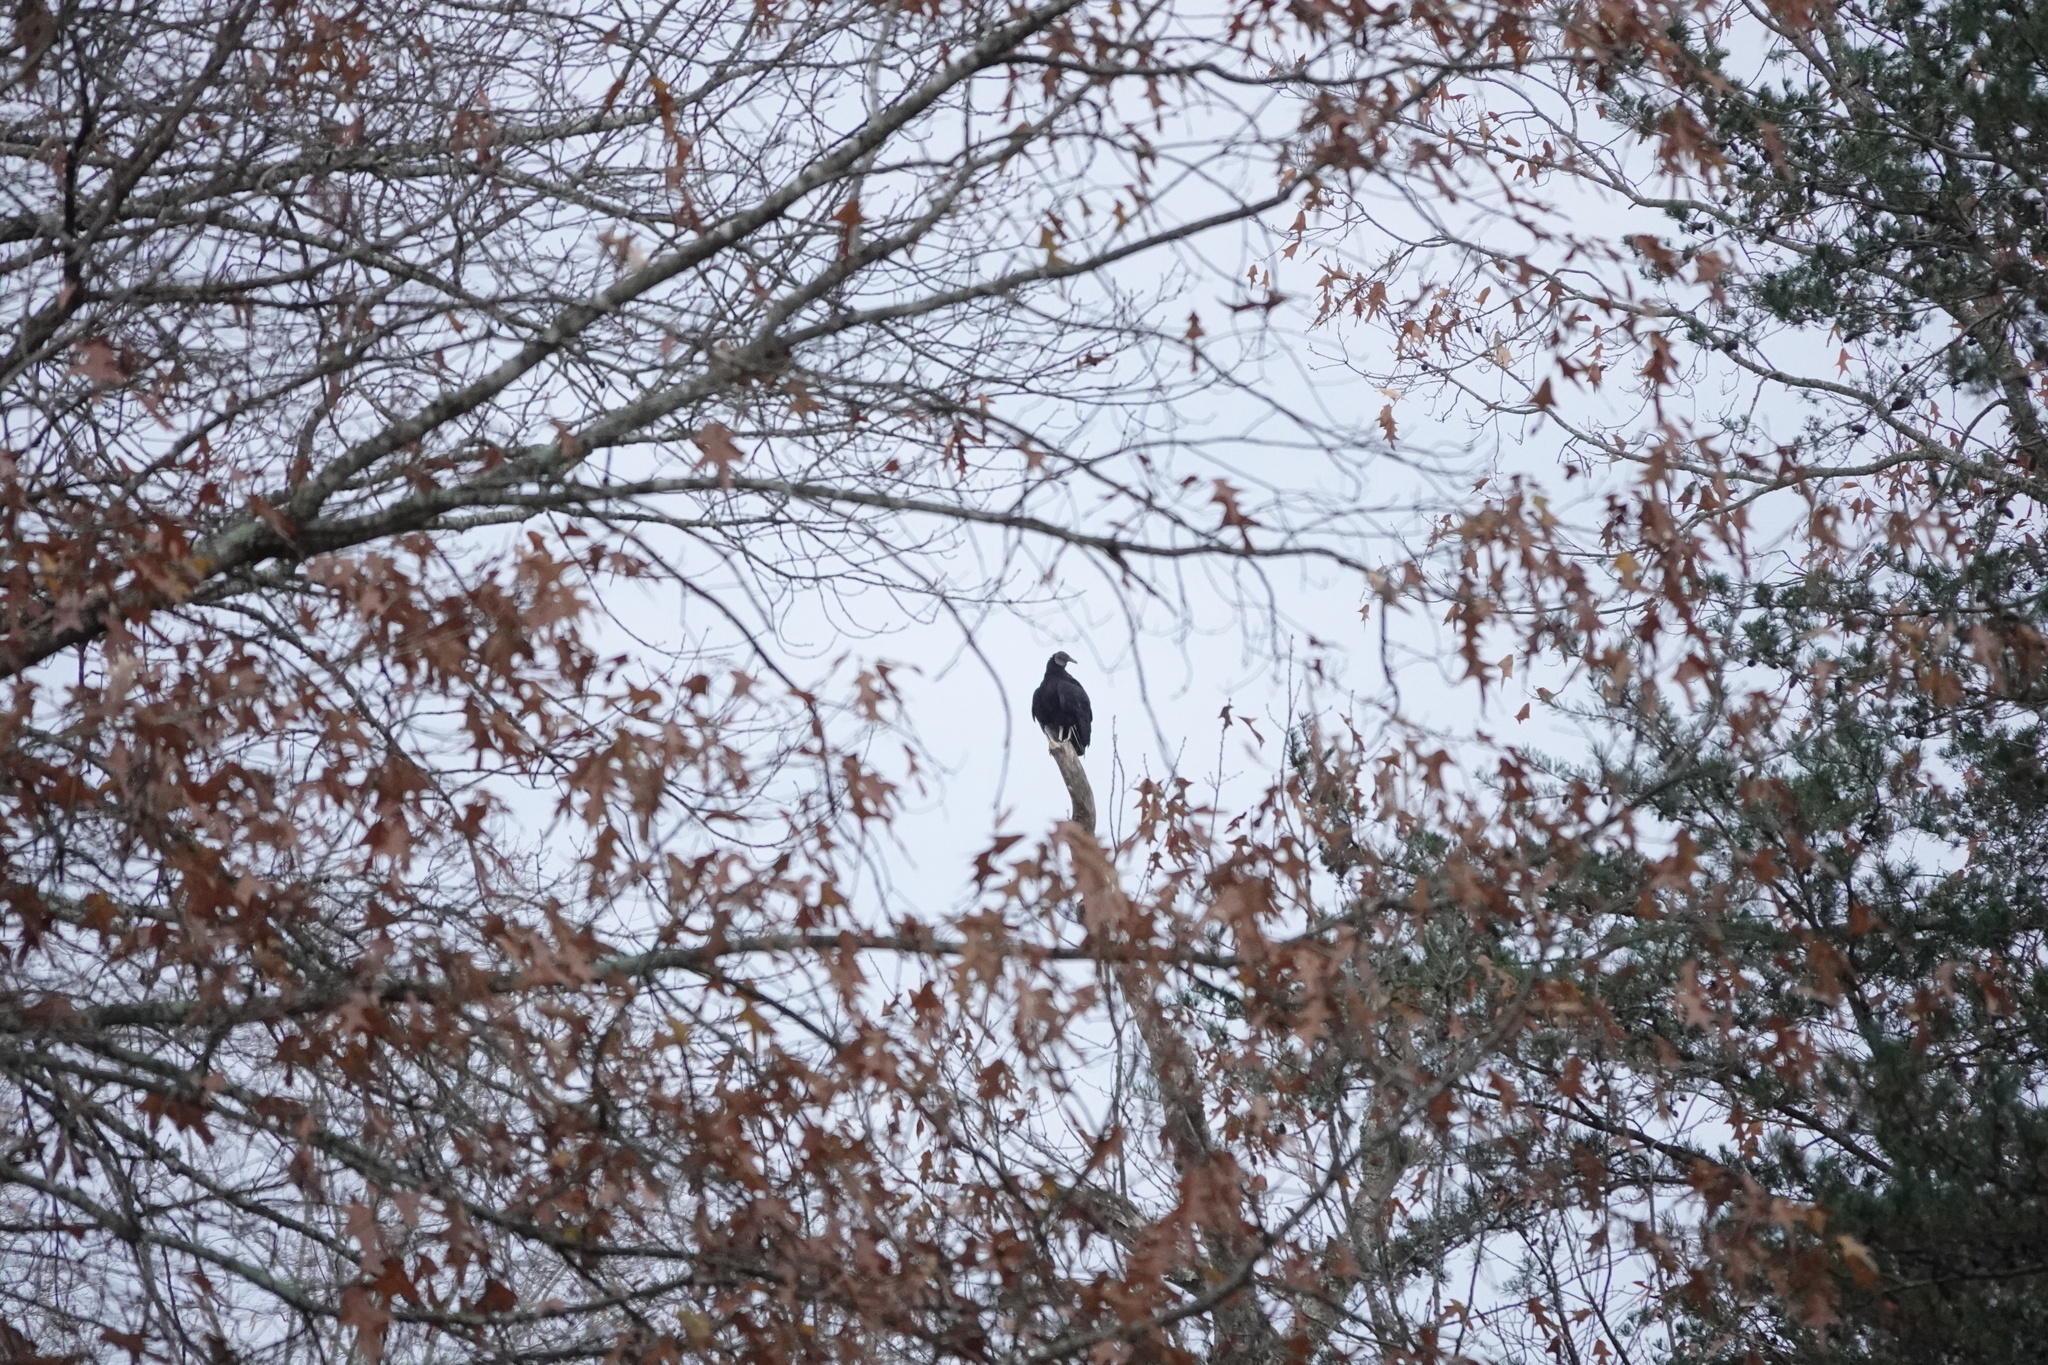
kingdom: Animalia
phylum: Chordata
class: Aves
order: Accipitriformes
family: Cathartidae
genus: Coragyps
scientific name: Coragyps atratus
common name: Black vulture
